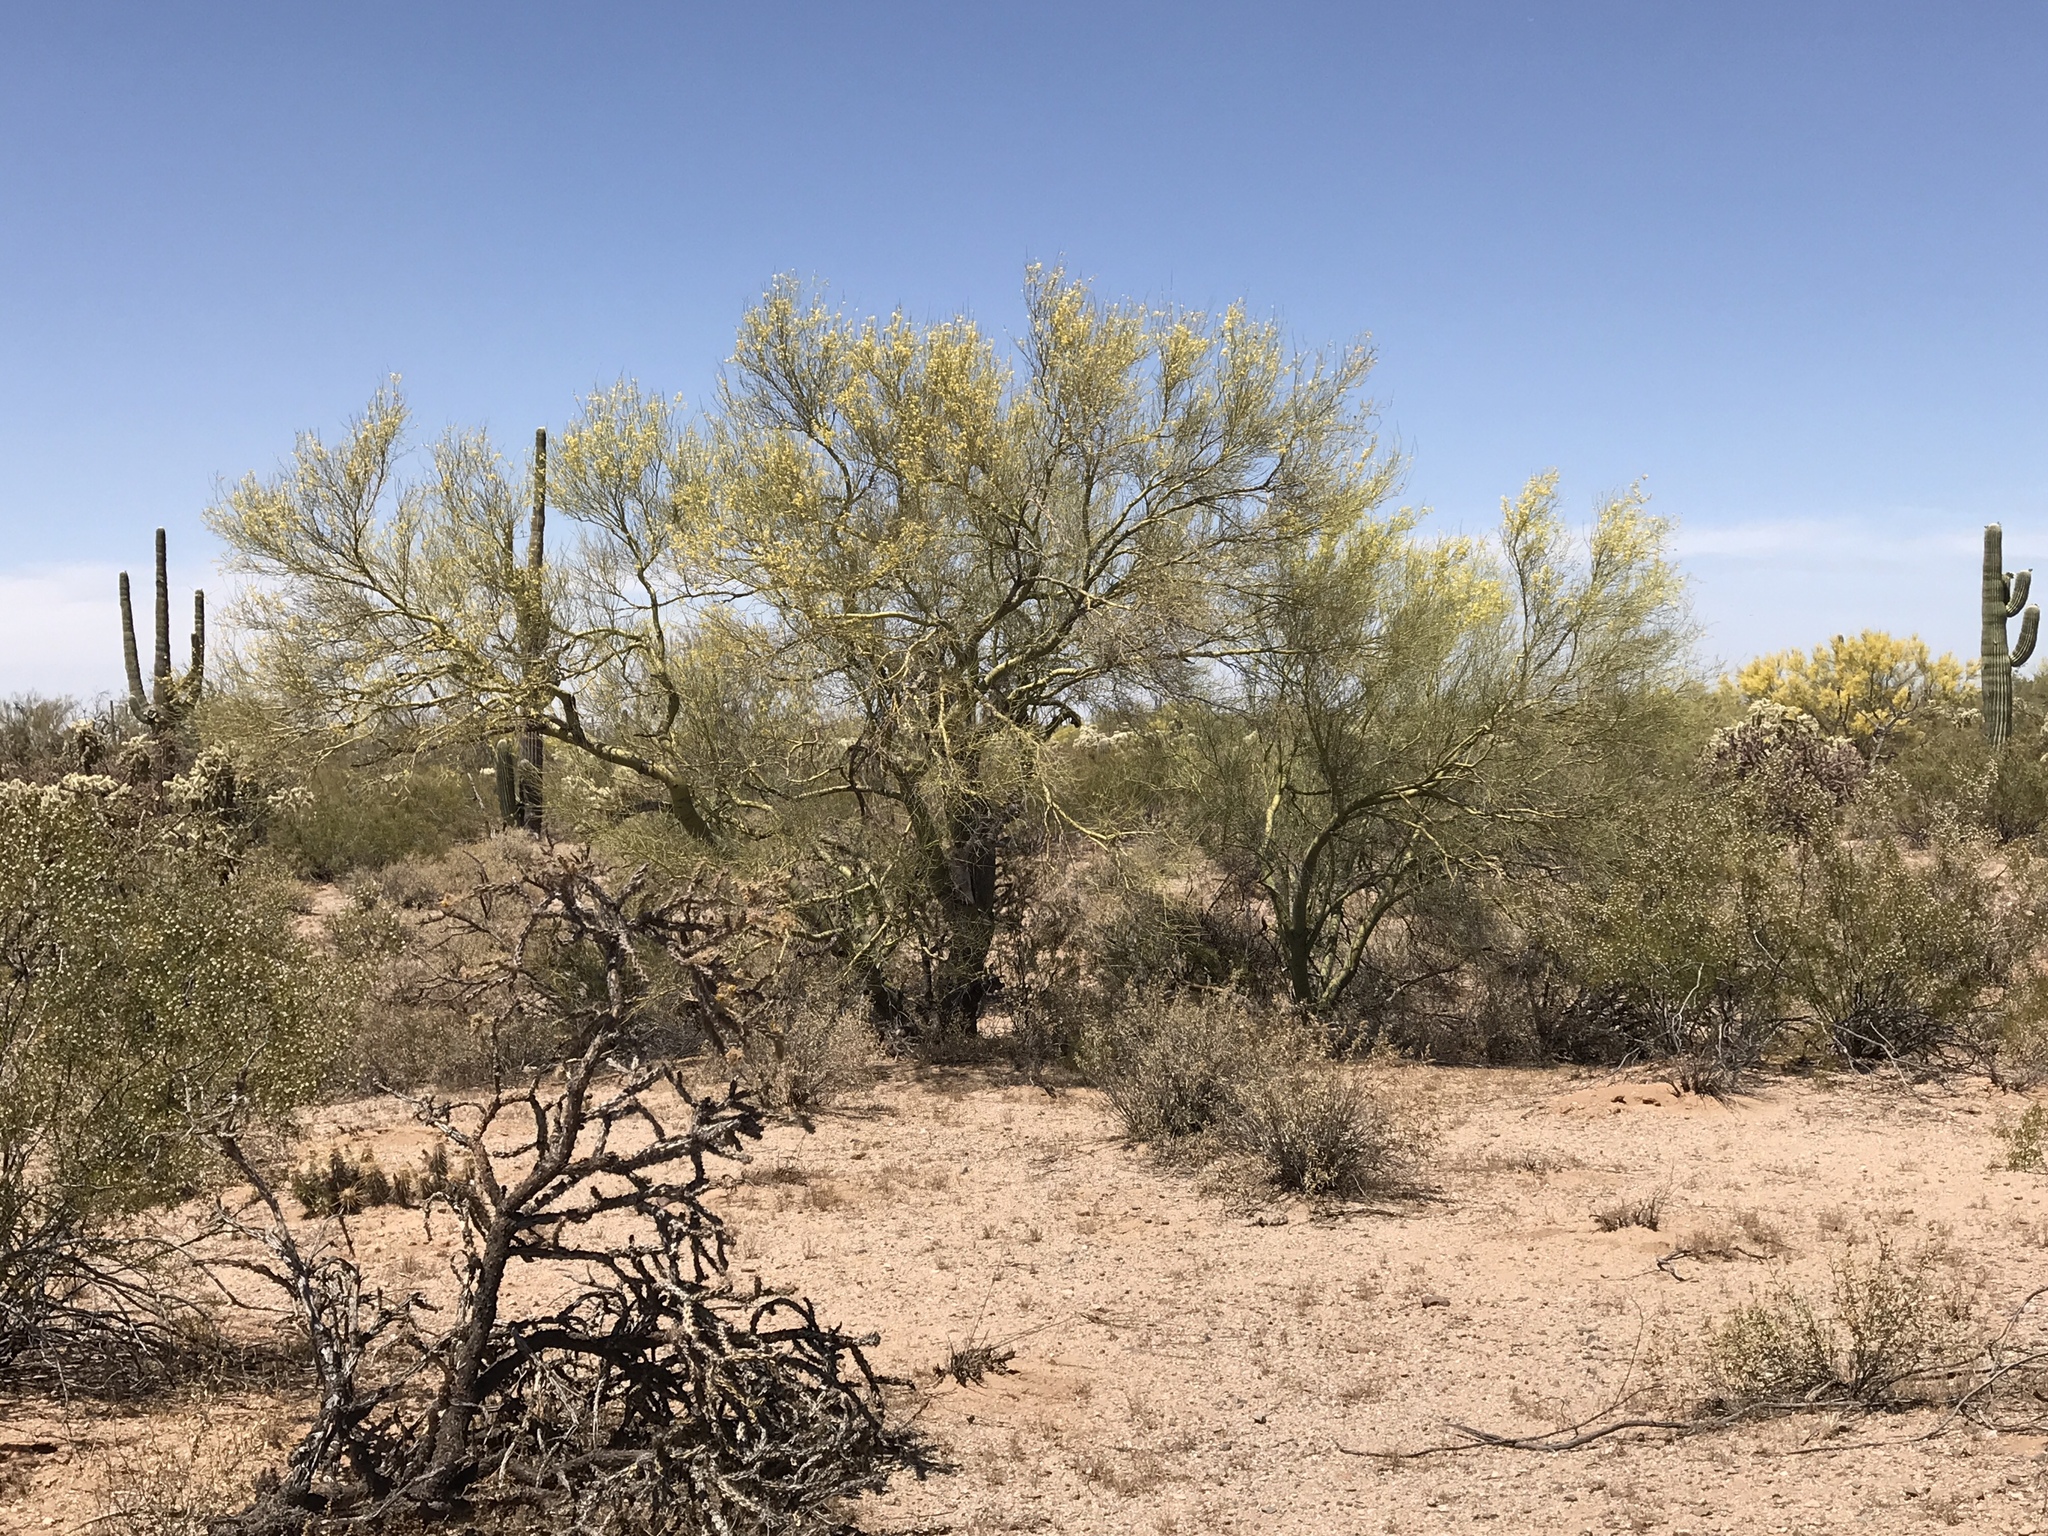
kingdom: Plantae
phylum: Tracheophyta
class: Magnoliopsida
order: Fabales
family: Fabaceae
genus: Parkinsonia
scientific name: Parkinsonia microphylla
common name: Yellow paloverde
